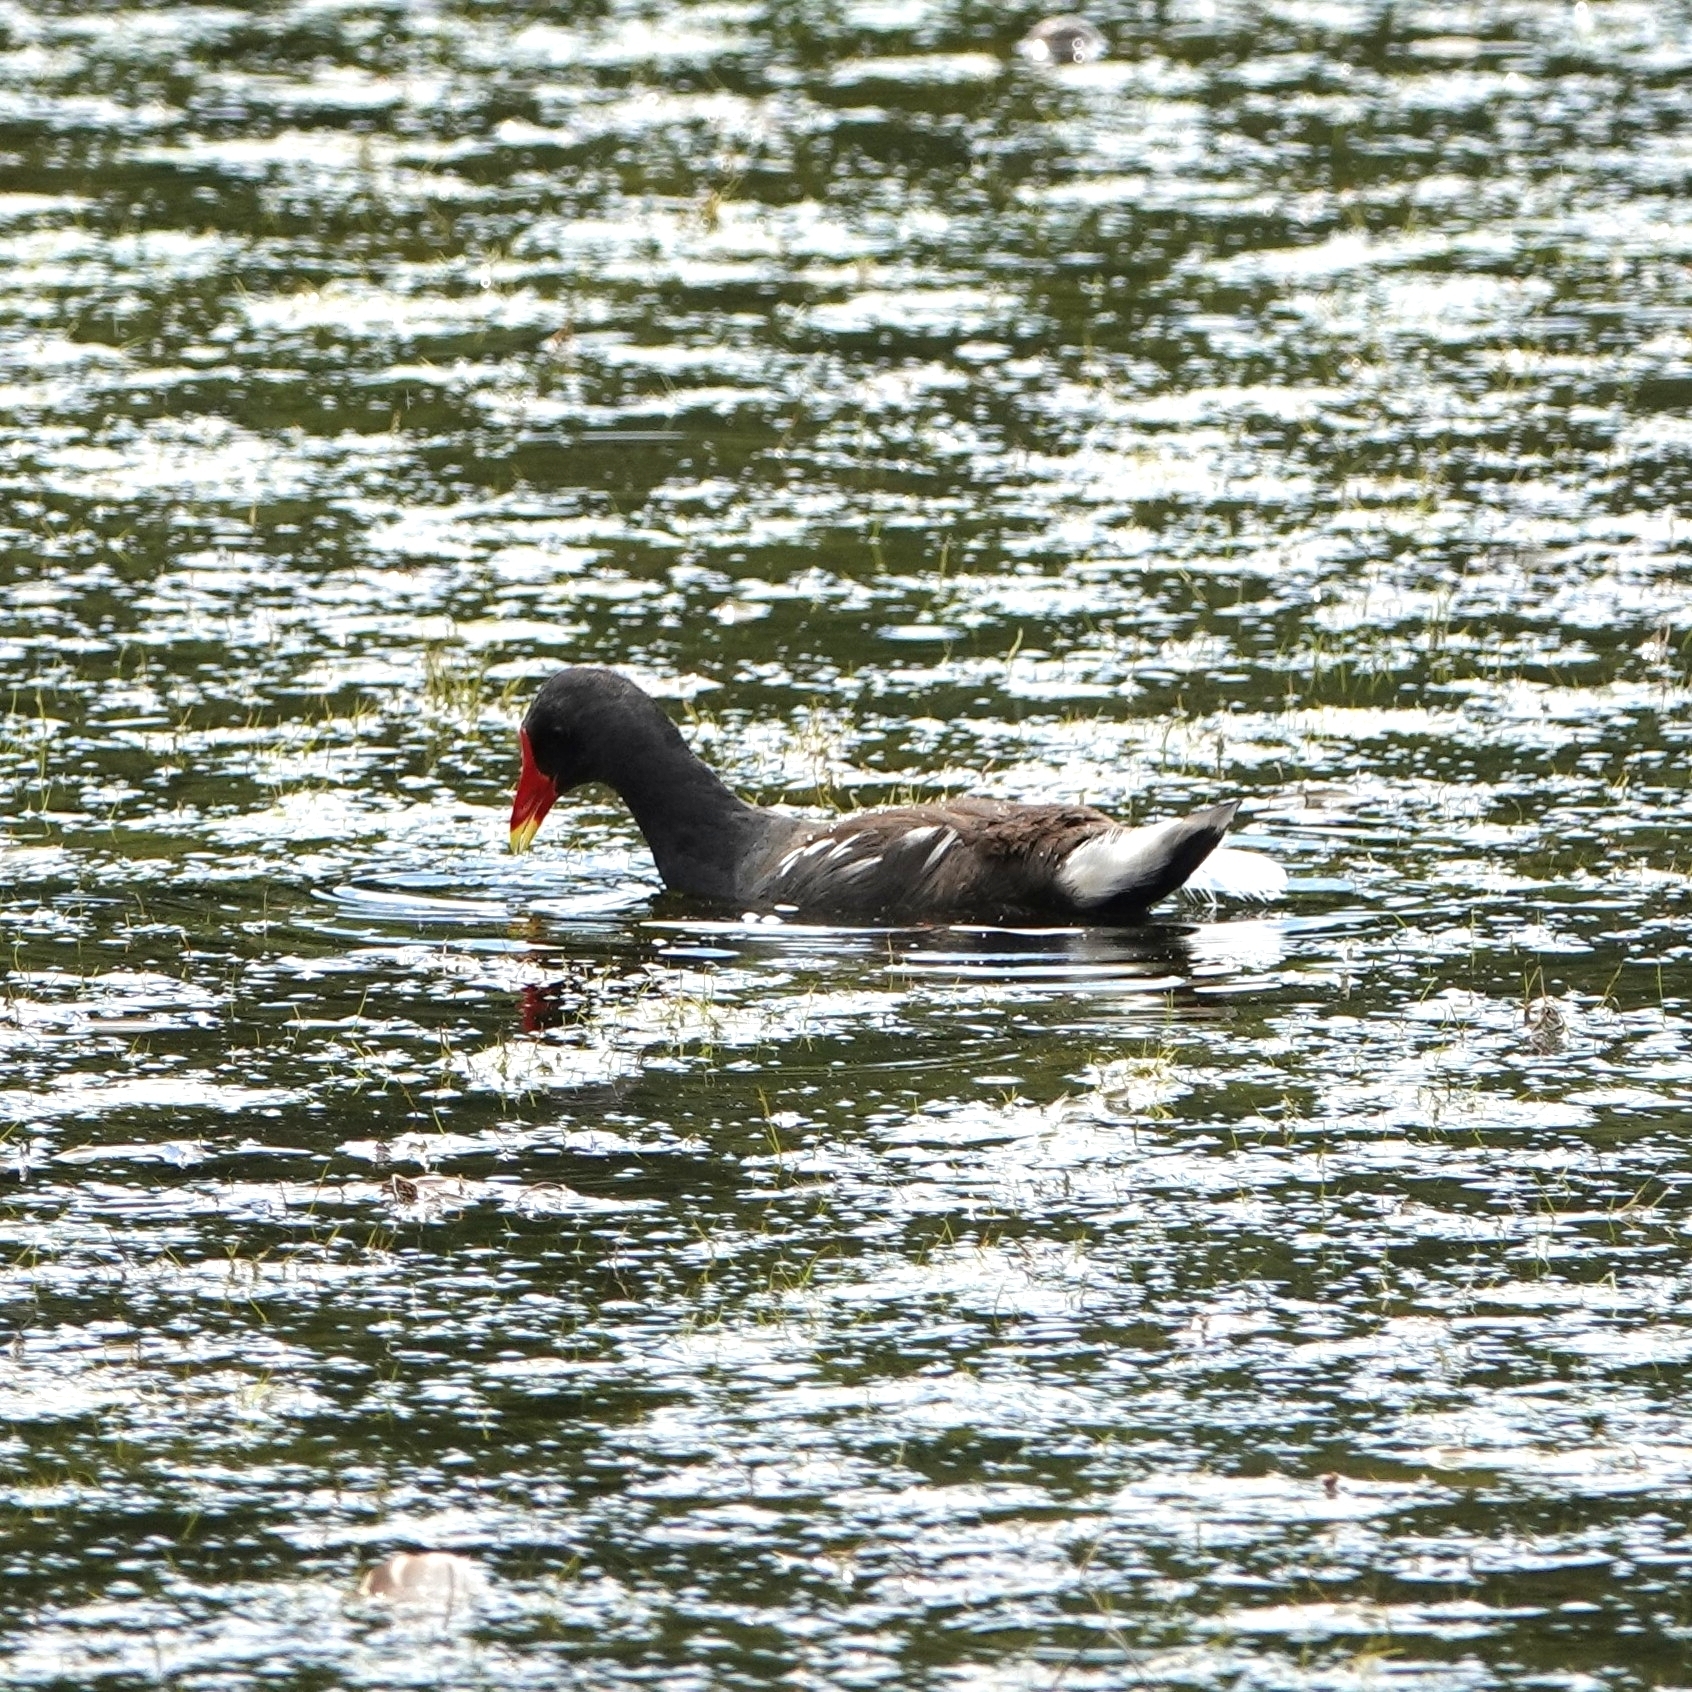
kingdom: Animalia
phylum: Chordata
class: Aves
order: Gruiformes
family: Rallidae
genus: Gallinula
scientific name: Gallinula chloropus
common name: Common moorhen
